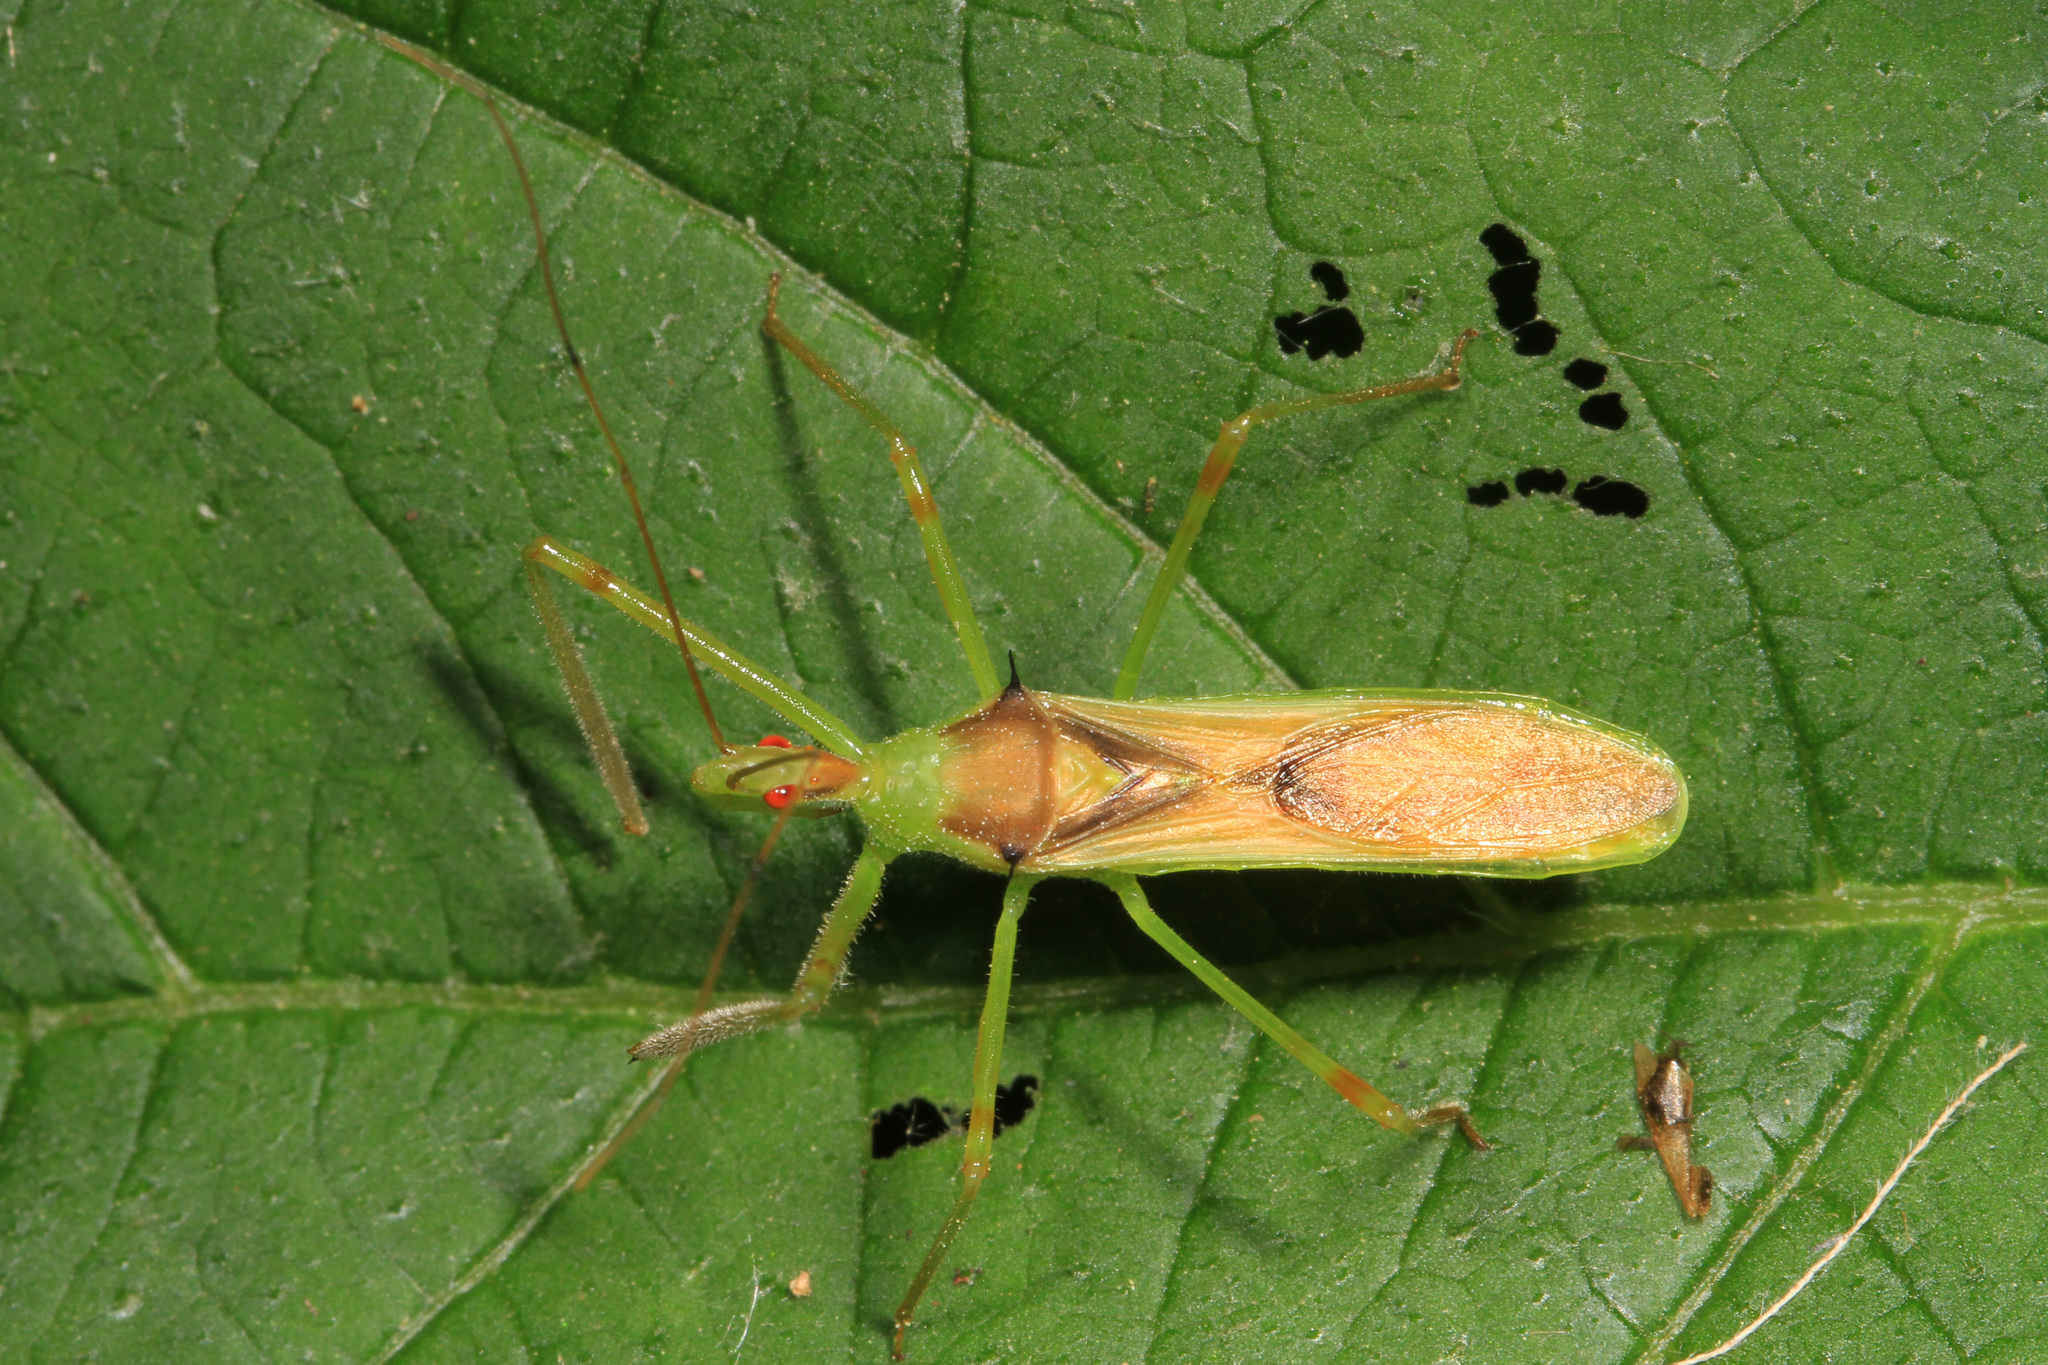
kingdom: Animalia
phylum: Arthropoda
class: Insecta
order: Hemiptera
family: Reduviidae
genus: Zelus
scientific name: Zelus luridus
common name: Pale green assassin bug
